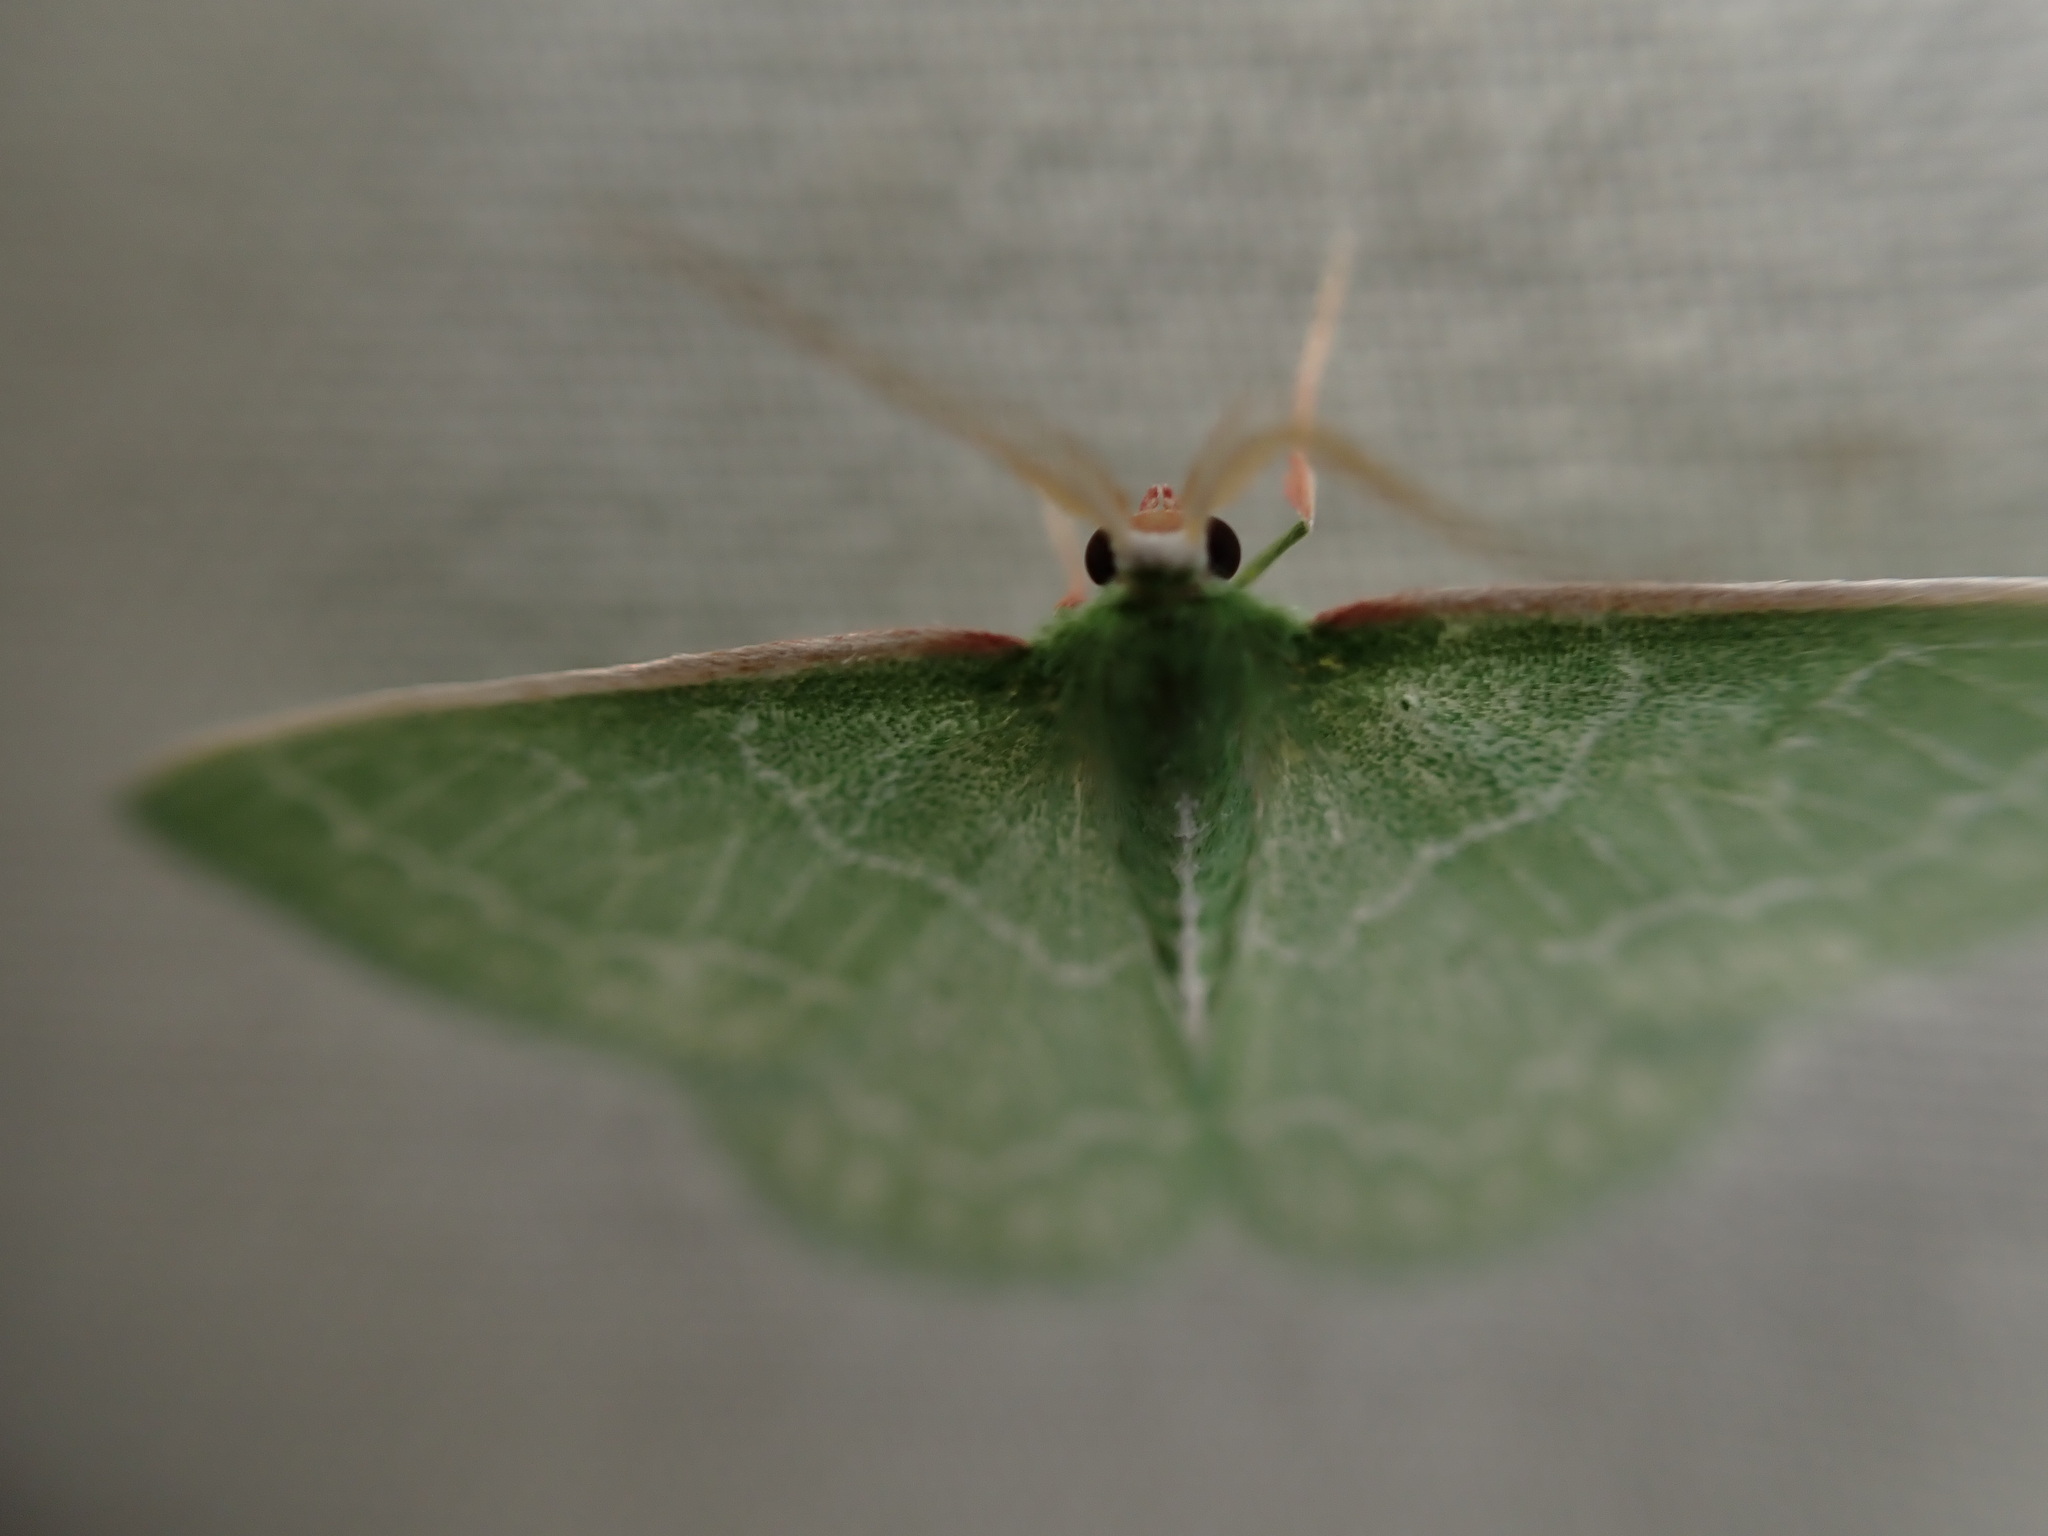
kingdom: Animalia
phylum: Arthropoda
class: Insecta
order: Lepidoptera
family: Geometridae
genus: Synchlora
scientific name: Synchlora aerata
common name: Wavy-lined emerald
